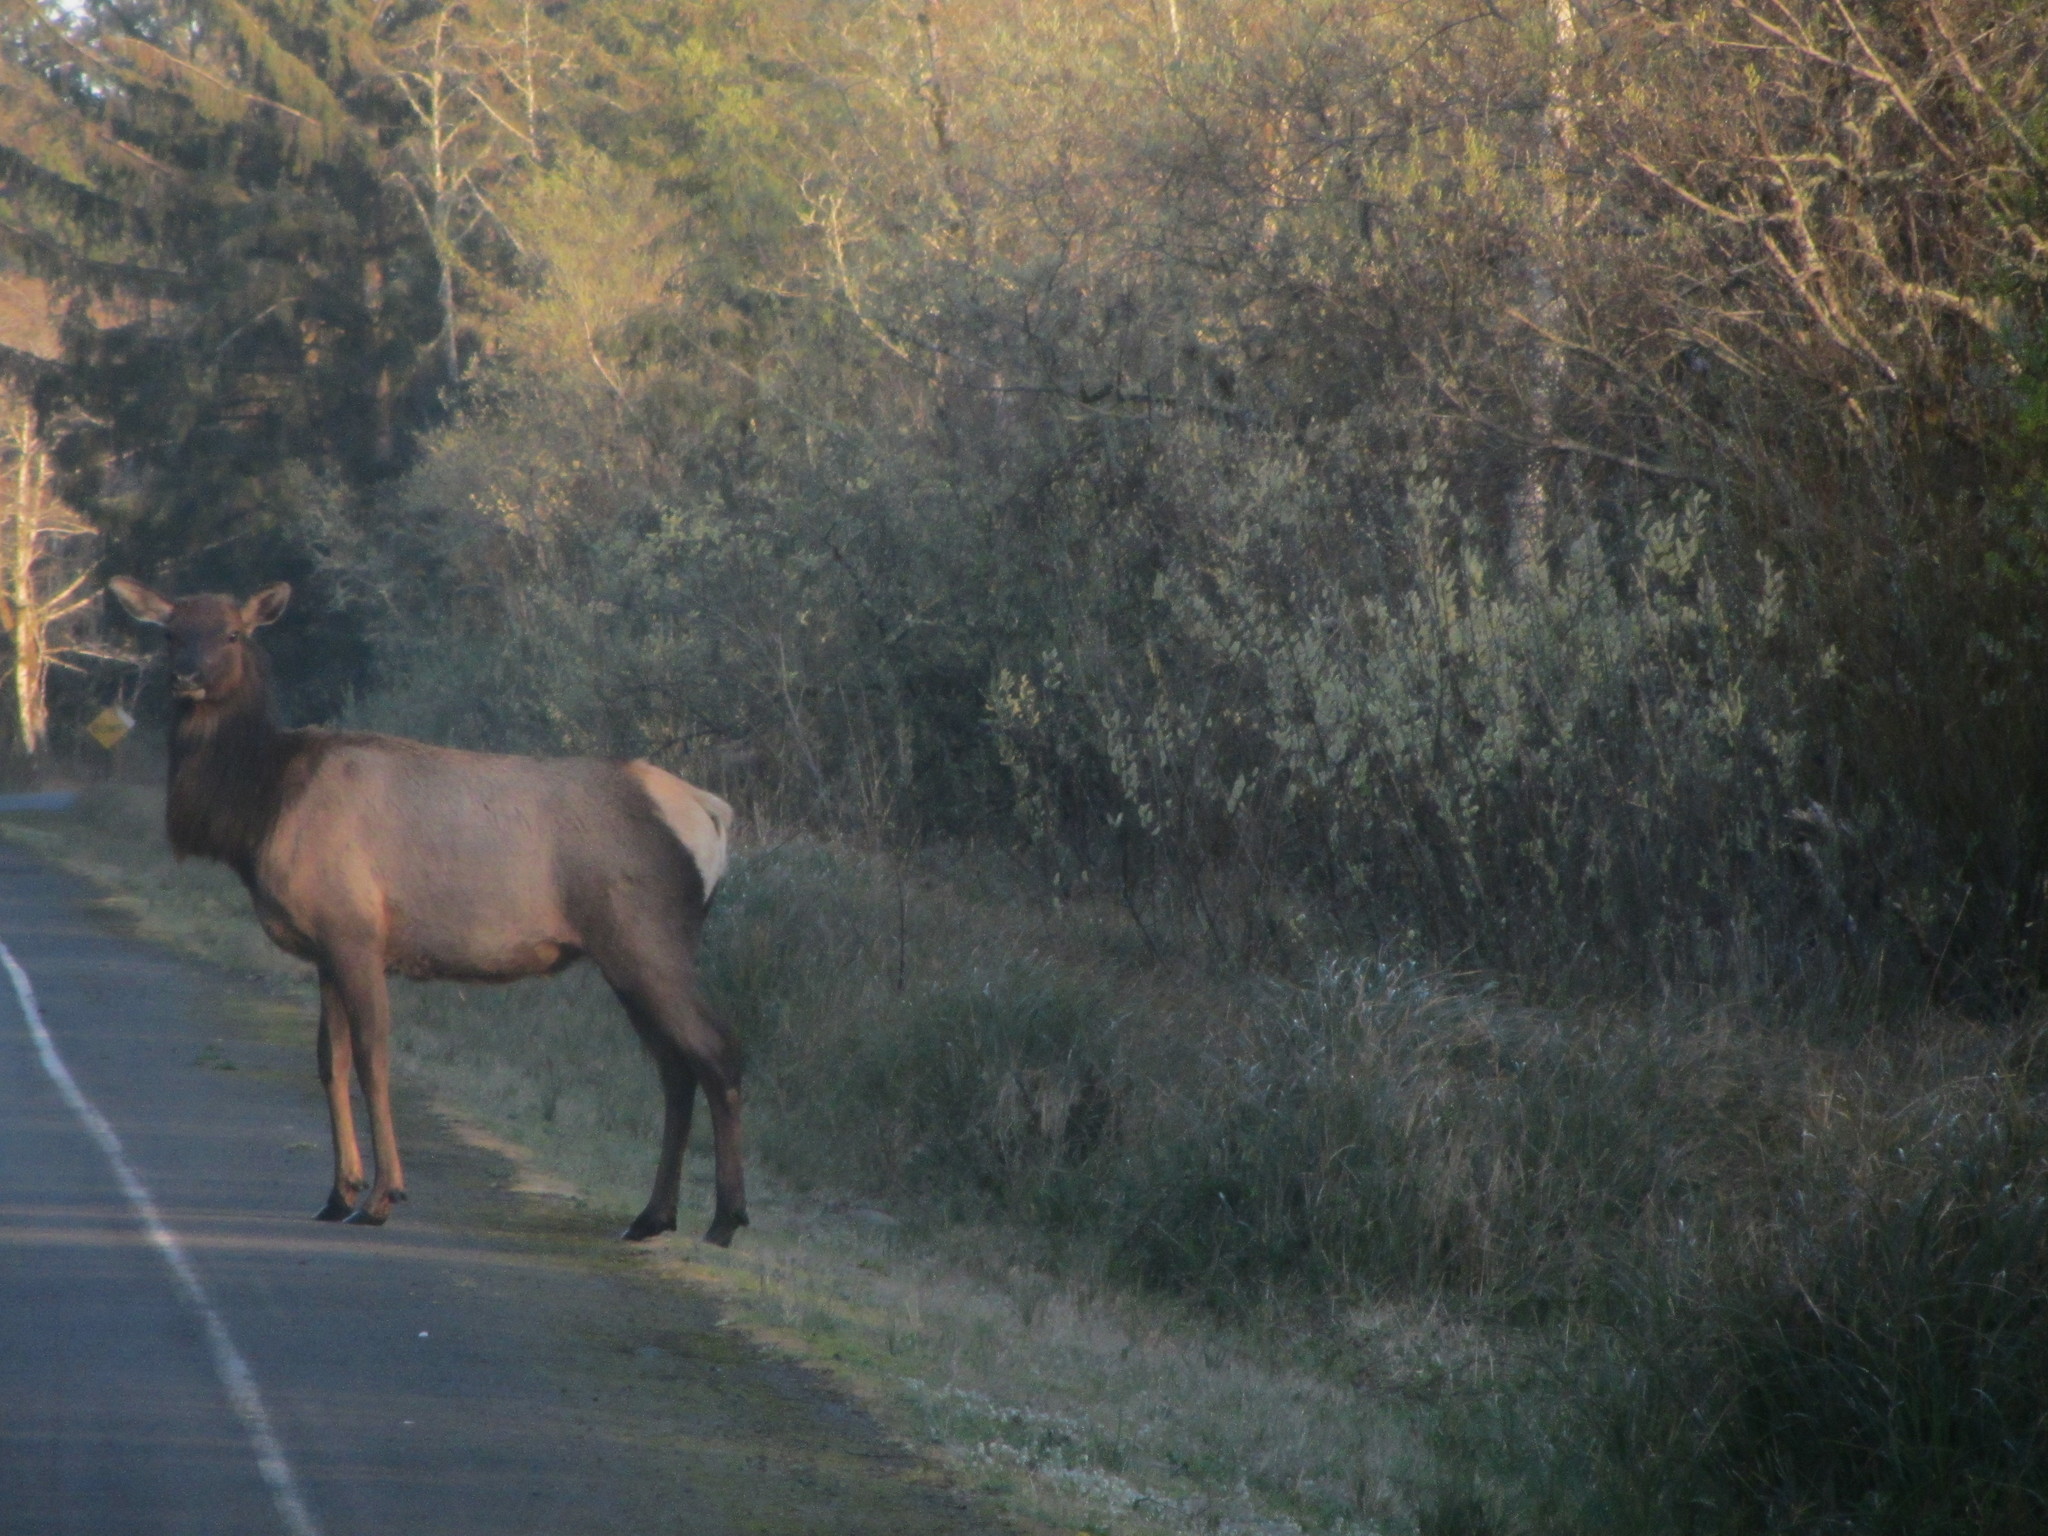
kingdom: Animalia
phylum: Chordata
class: Mammalia
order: Artiodactyla
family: Cervidae
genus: Cervus
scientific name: Cervus elaphus
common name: Red deer
